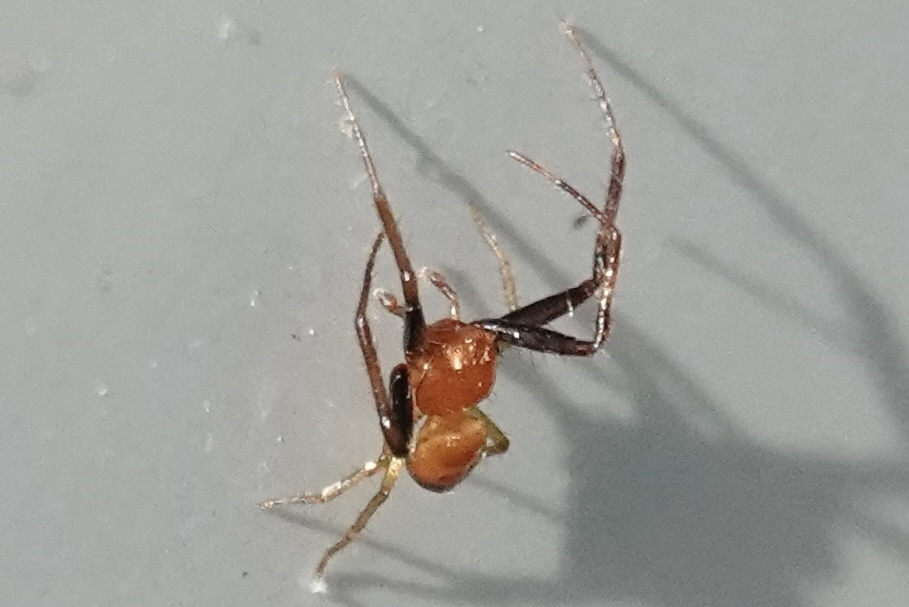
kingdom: Animalia
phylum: Arthropoda
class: Arachnida
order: Araneae
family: Thomisidae
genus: Synema
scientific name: Synema parvulum
